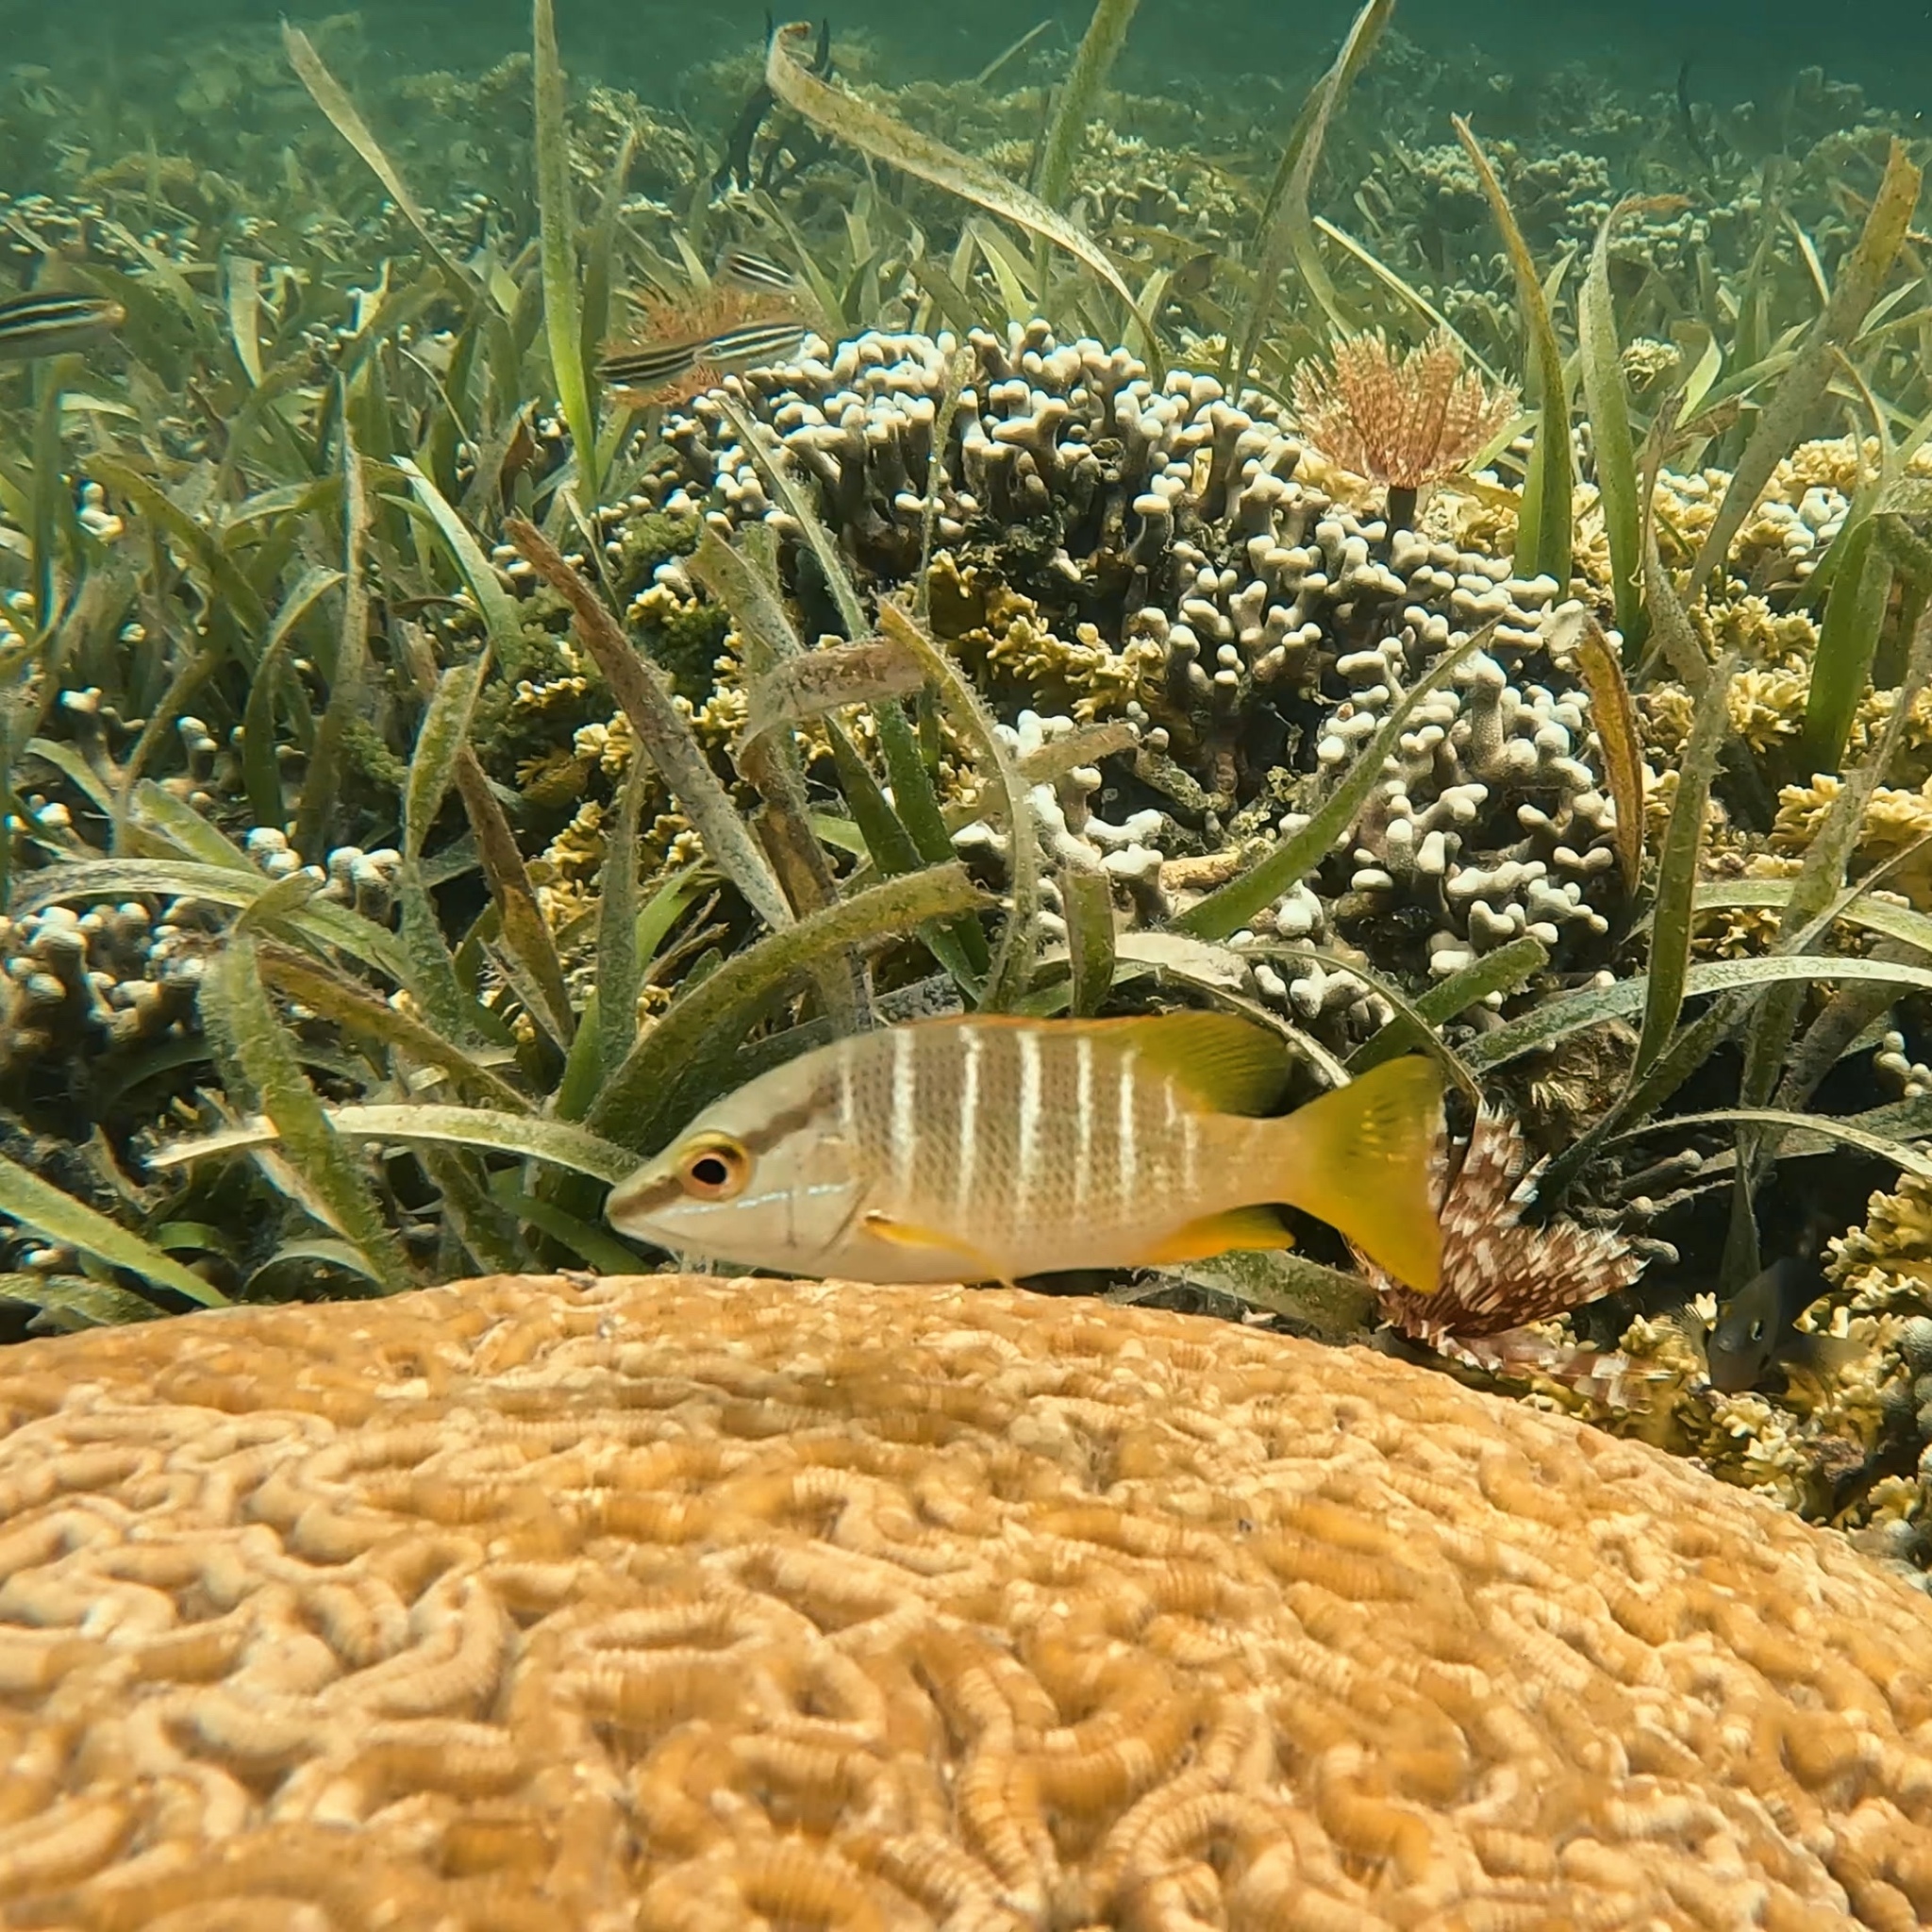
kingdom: Animalia
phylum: Chordata
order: Perciformes
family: Lutjanidae
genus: Lutjanus
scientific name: Lutjanus apodus
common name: Schoolmaster
